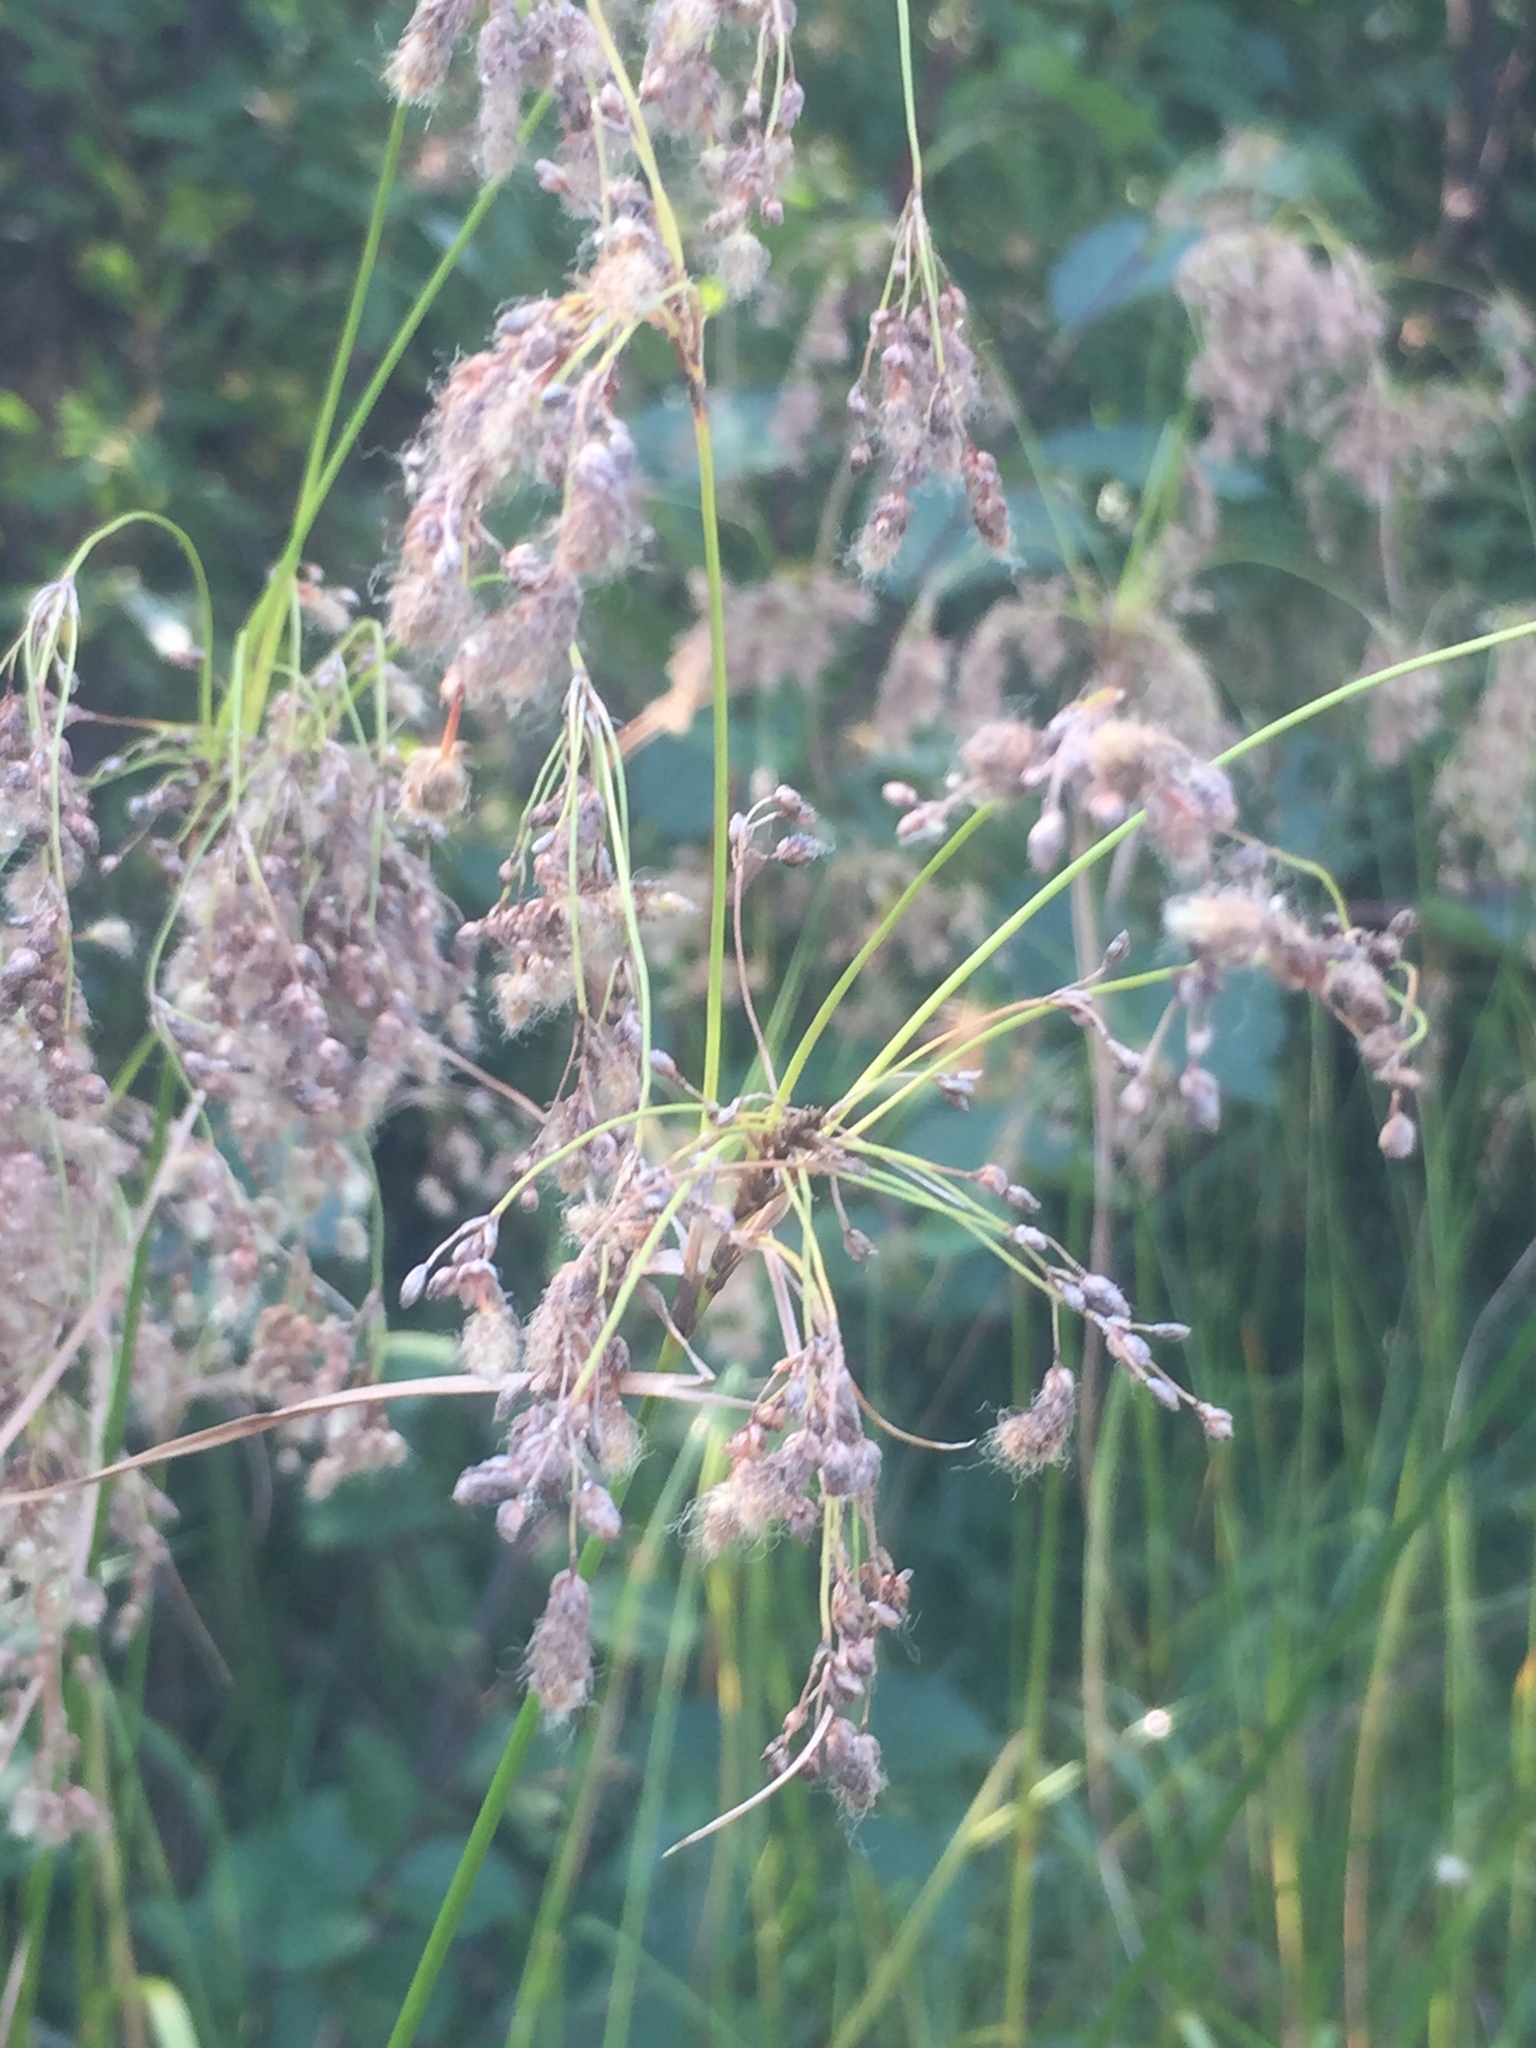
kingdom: Plantae
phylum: Tracheophyta
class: Liliopsida
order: Poales
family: Cyperaceae
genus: Scirpus
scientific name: Scirpus cyperinus
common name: Black-sheathed bulrush
